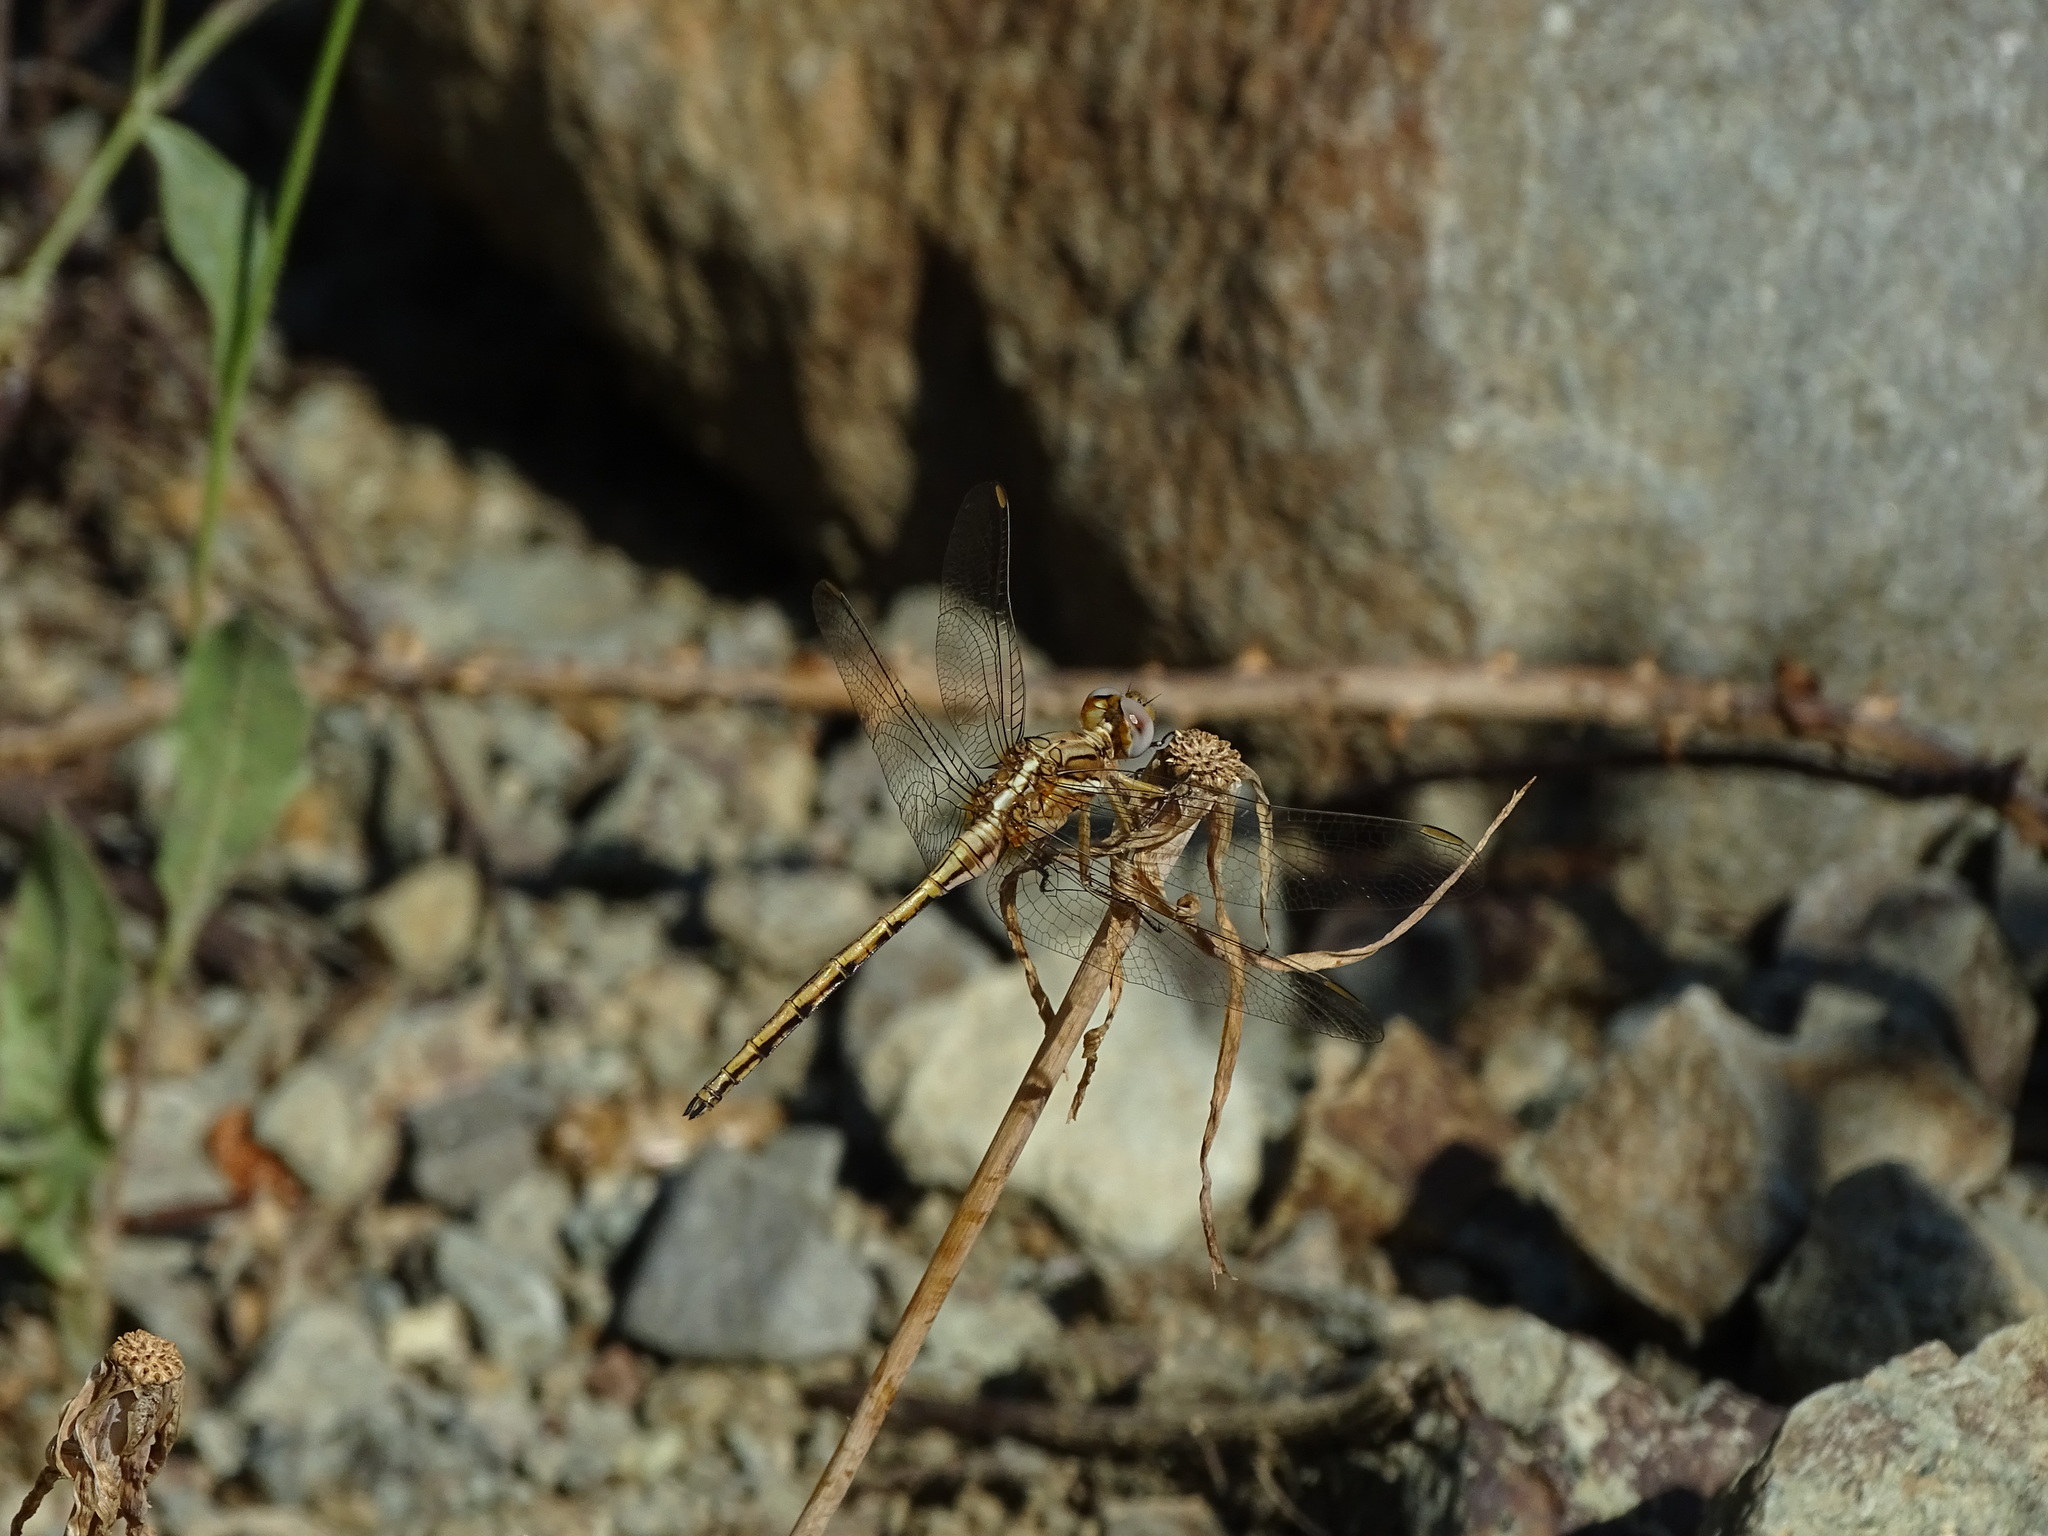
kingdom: Animalia
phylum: Arthropoda
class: Insecta
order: Odonata
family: Libellulidae
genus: Orthetrum
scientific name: Orthetrum chrysostigma
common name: Epaulet skimmer
